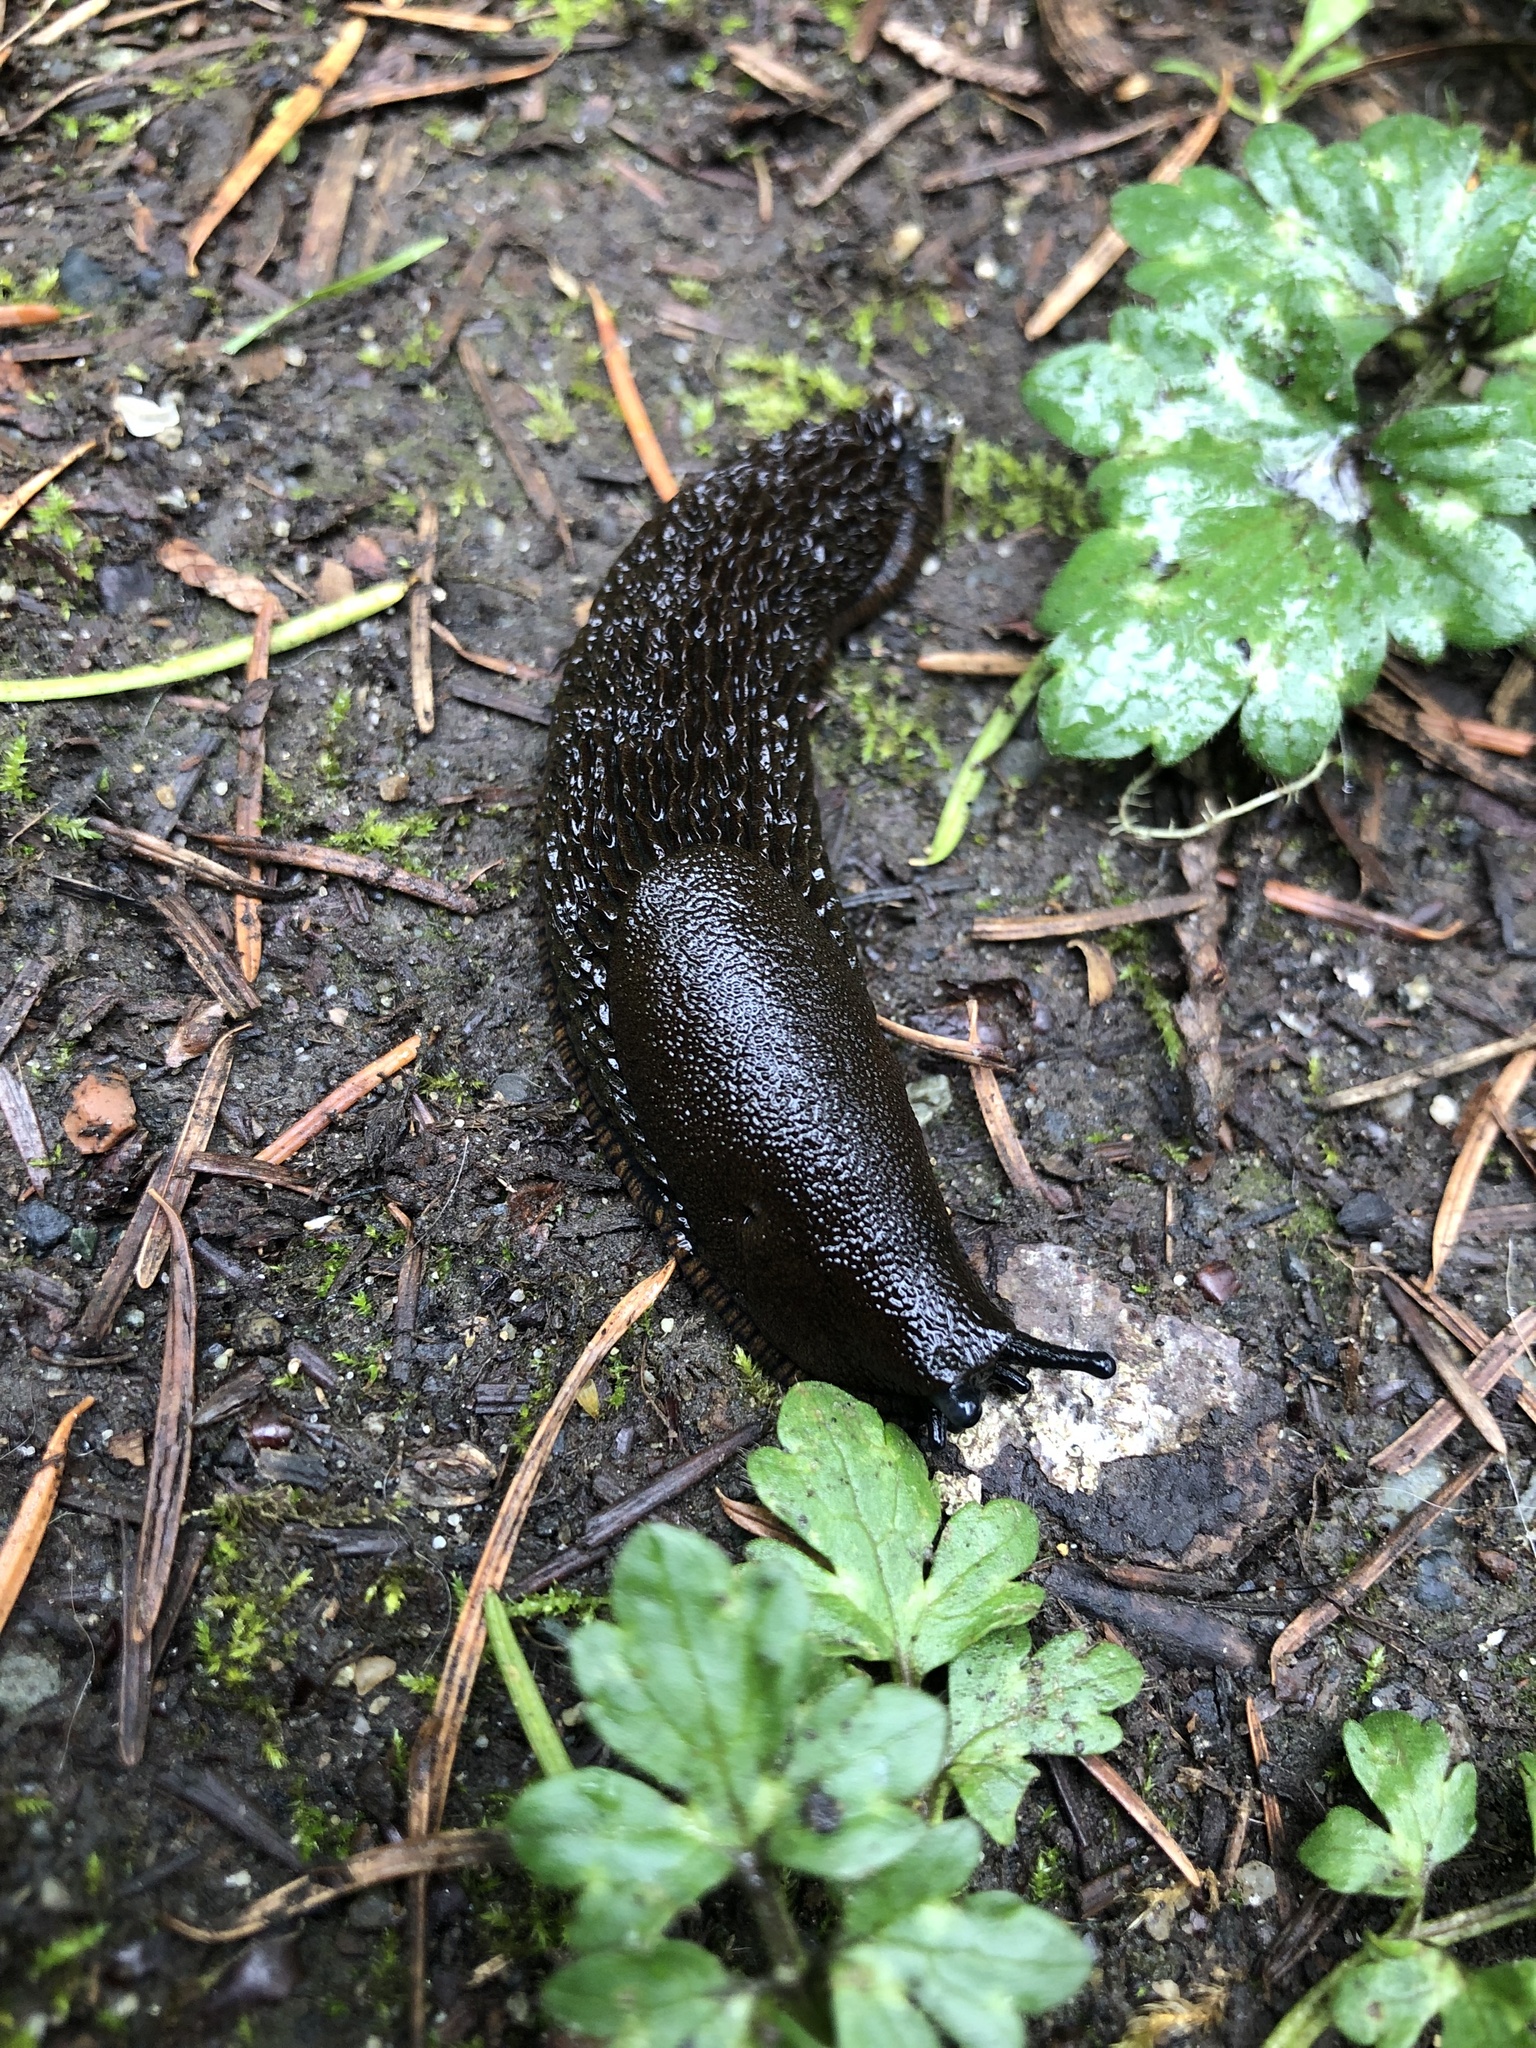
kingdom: Animalia
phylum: Mollusca
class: Gastropoda
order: Stylommatophora
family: Arionidae
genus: Arion
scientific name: Arion
